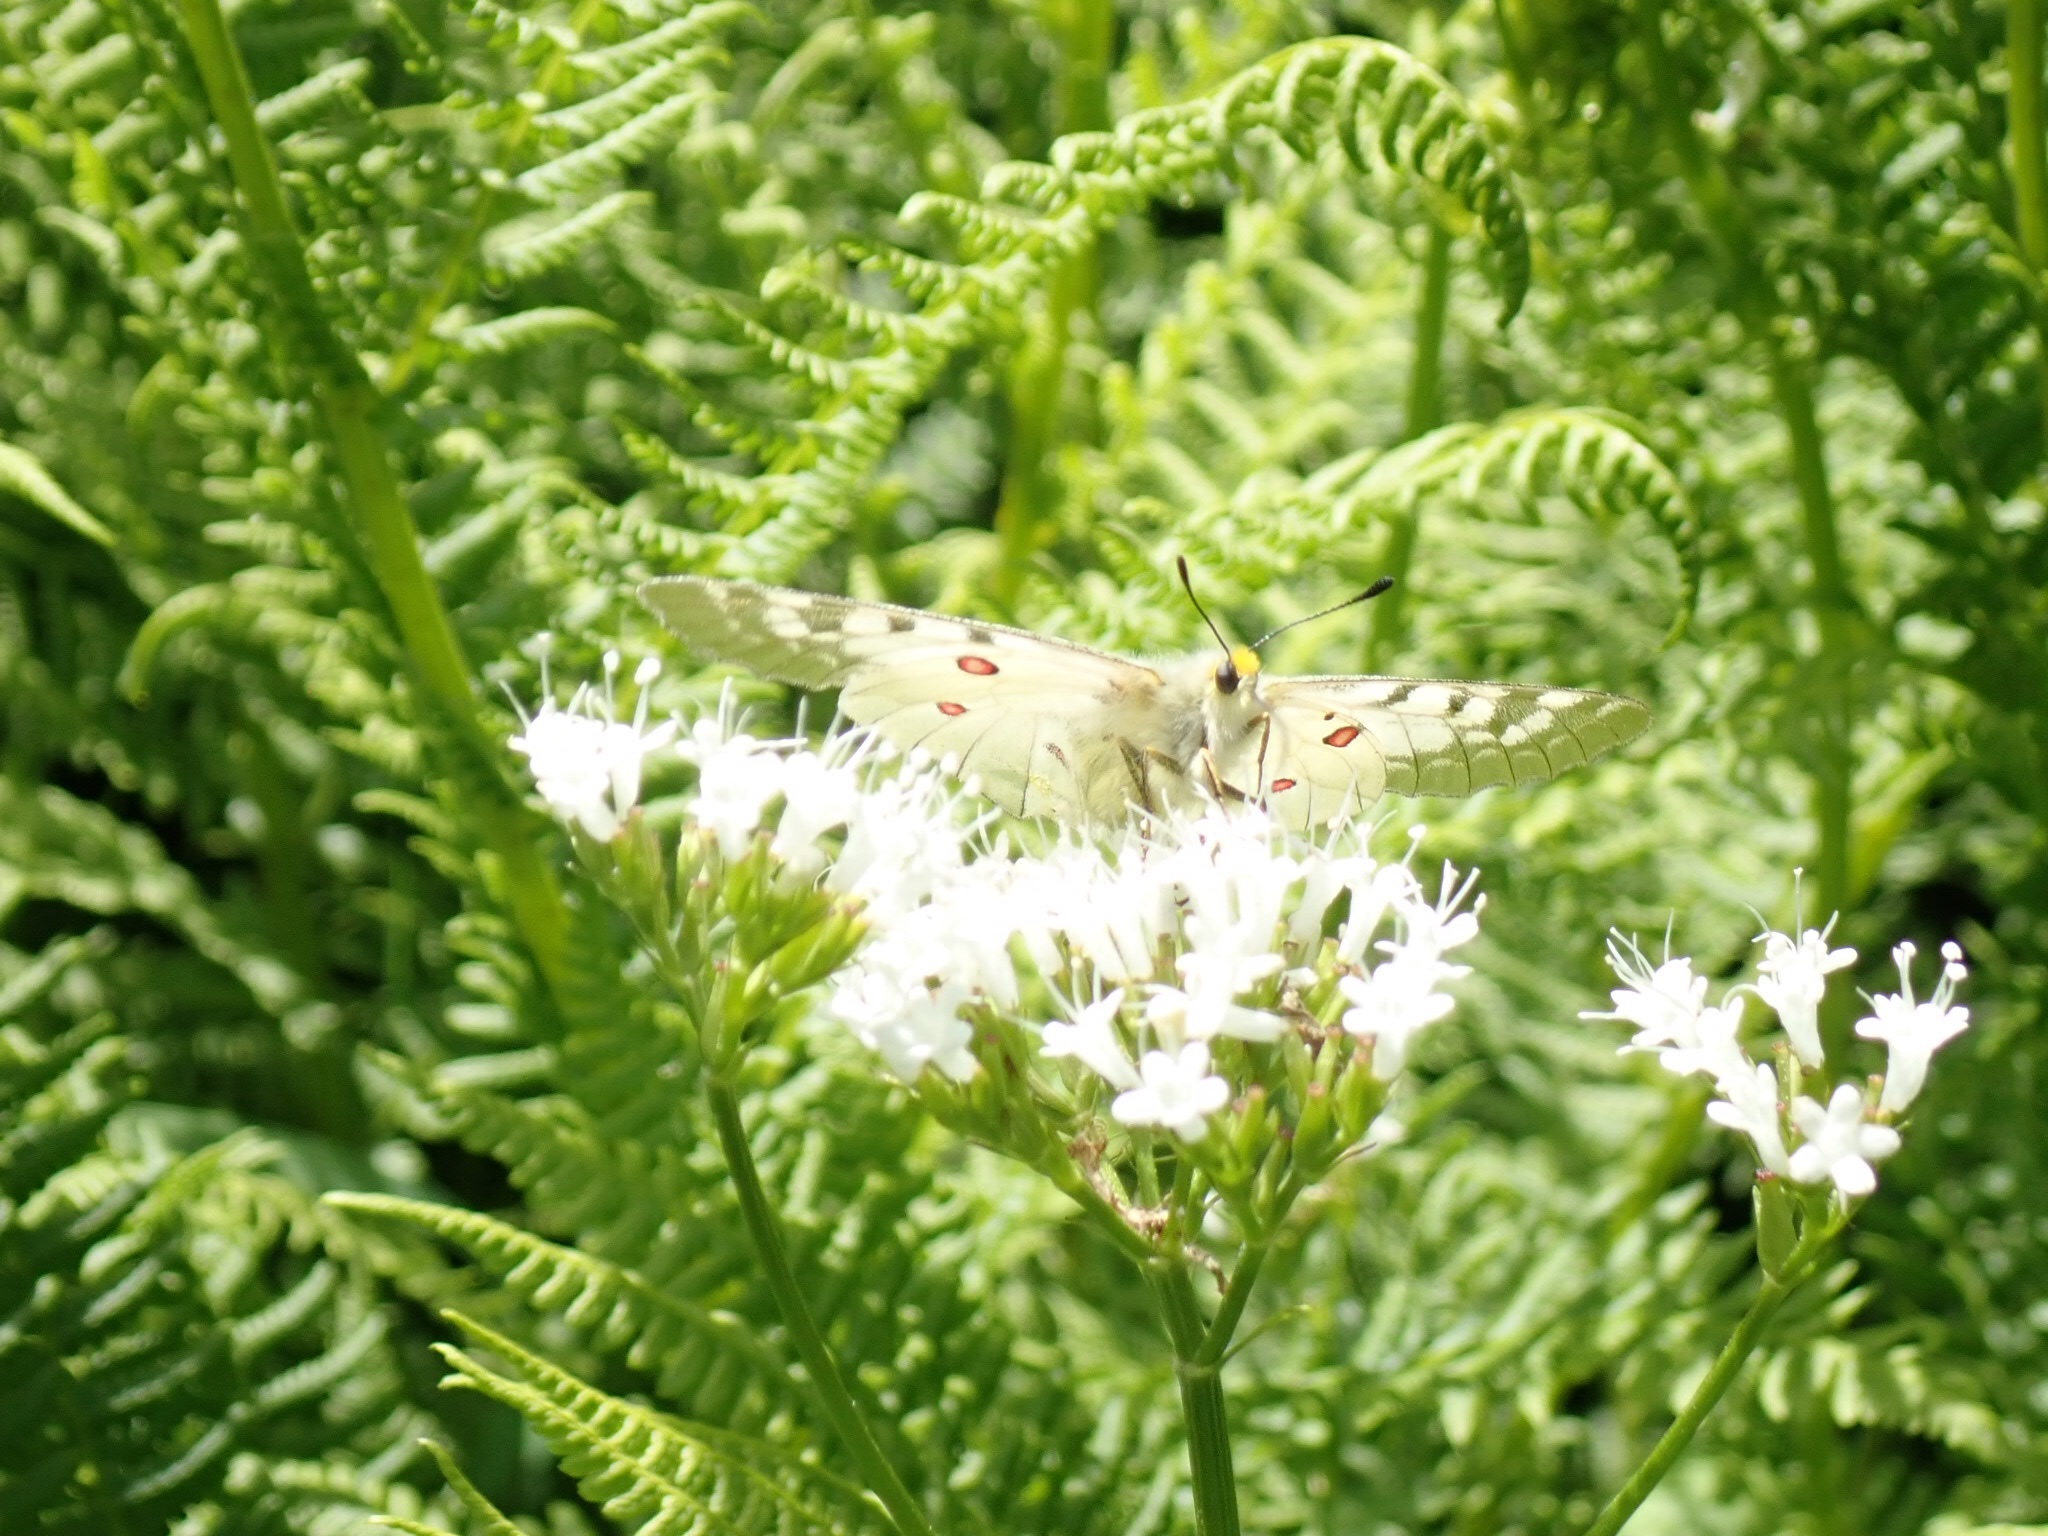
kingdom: Animalia
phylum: Arthropoda
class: Insecta
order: Lepidoptera
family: Papilionidae
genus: Parnassius
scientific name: Parnassius clodius
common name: American apollo
